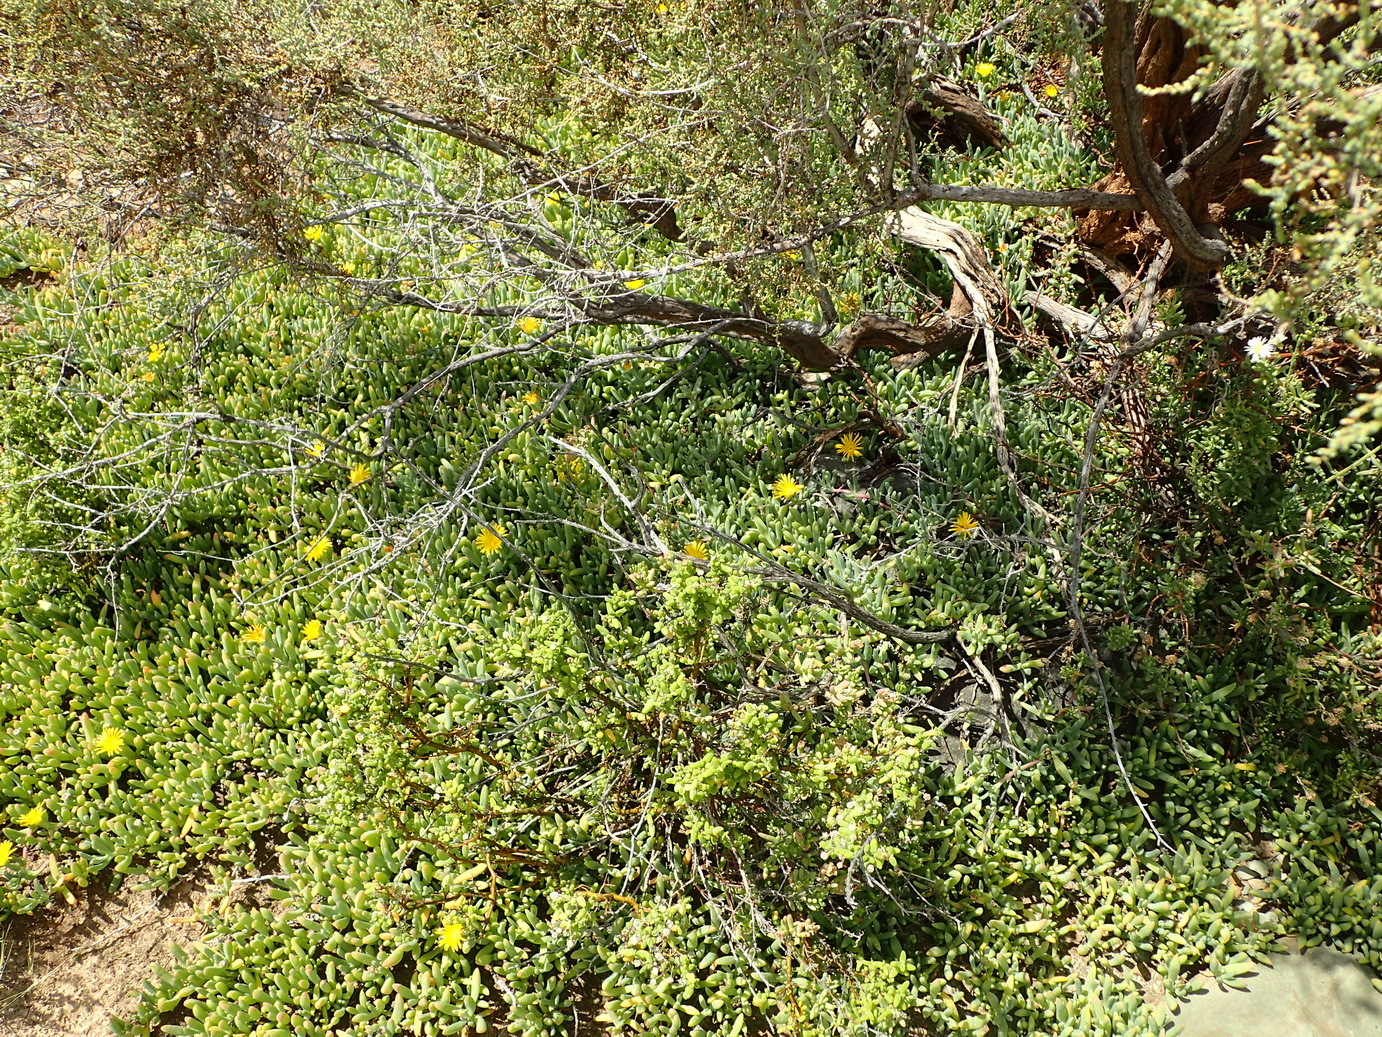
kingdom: Plantae
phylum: Tracheophyta
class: Magnoliopsida
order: Caryophyllales
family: Aizoaceae
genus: Malephora
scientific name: Malephora lutea
